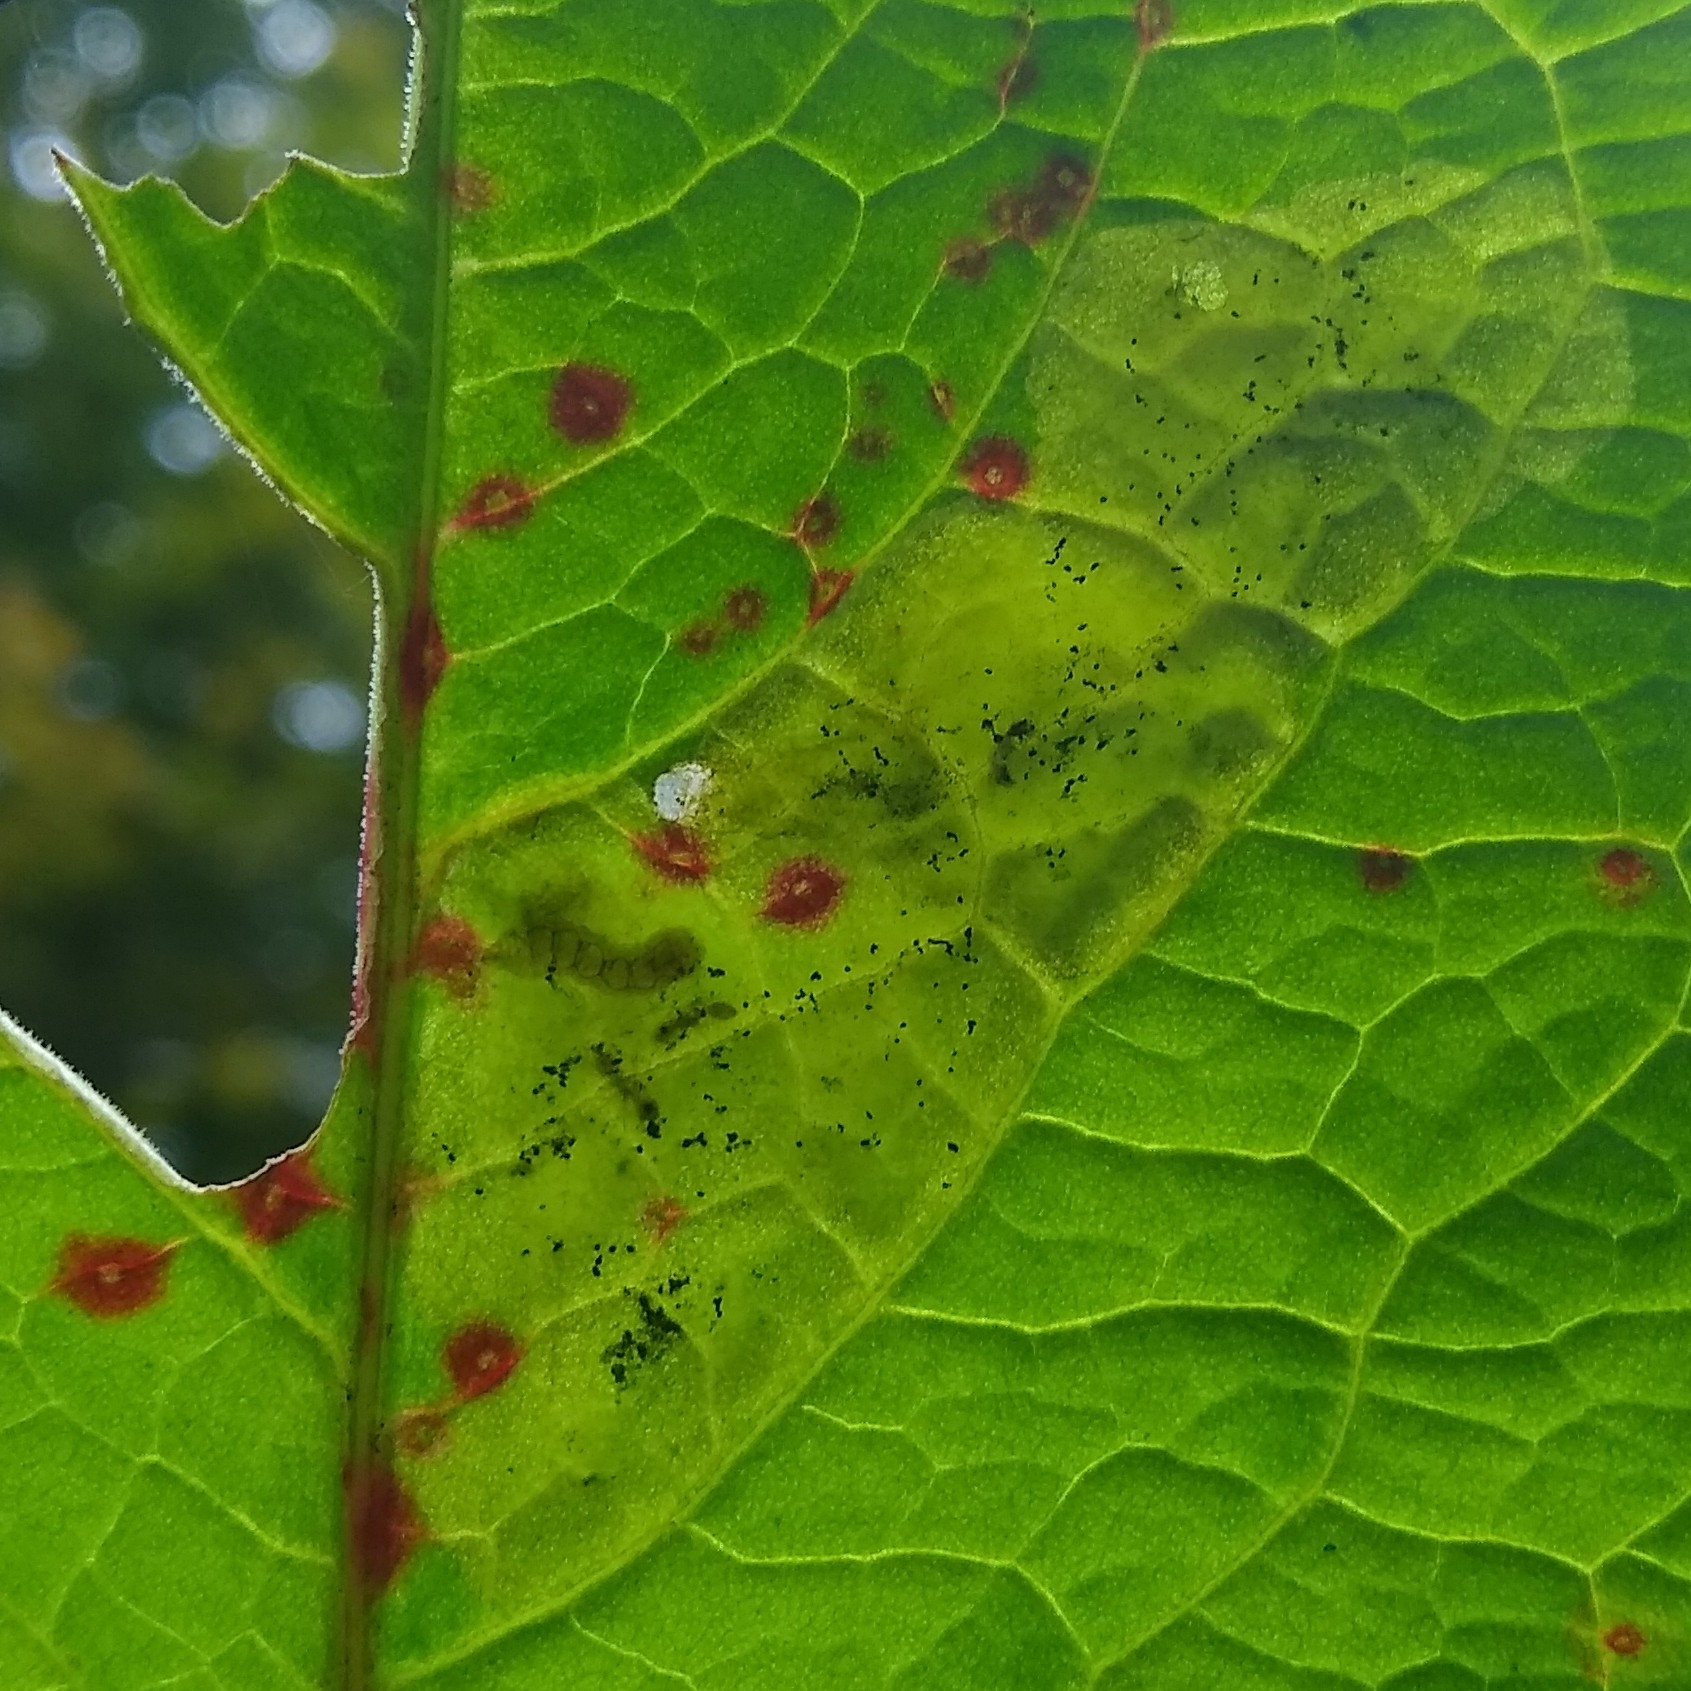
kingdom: Animalia
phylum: Arthropoda
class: Insecta
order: Diptera
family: Anthomyiidae
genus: Pegomya
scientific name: Pegomya bicolor
